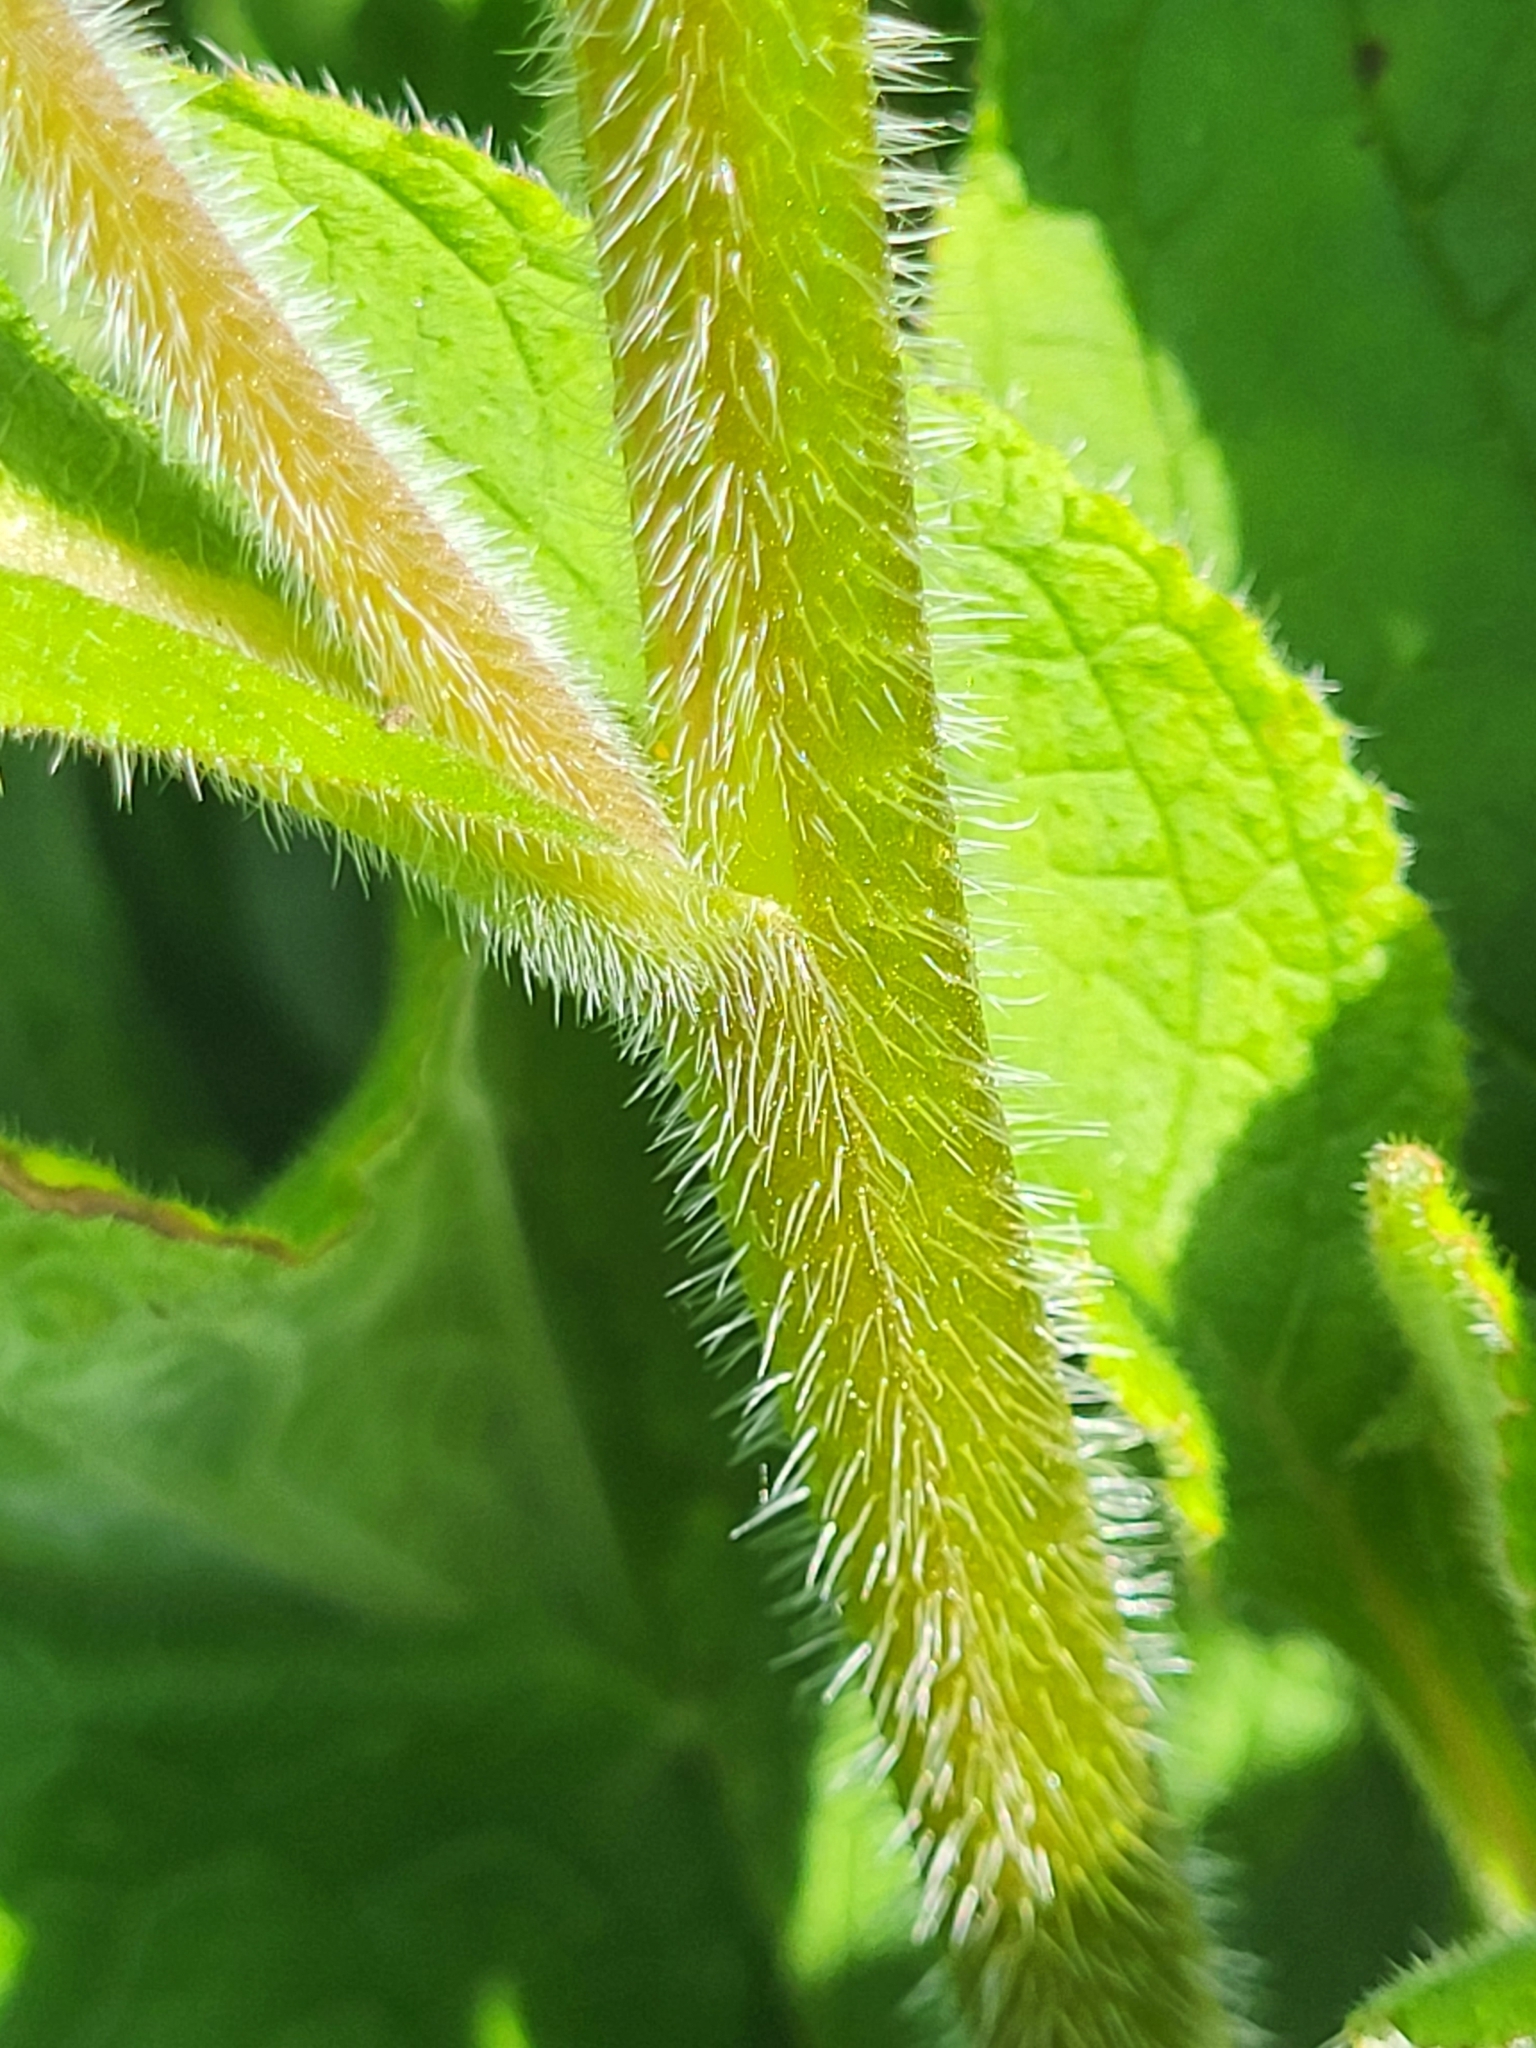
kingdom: Plantae
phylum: Tracheophyta
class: Magnoliopsida
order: Boraginales
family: Boraginaceae
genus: Pentaglottis
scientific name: Pentaglottis sempervirens
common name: Green alkanet
